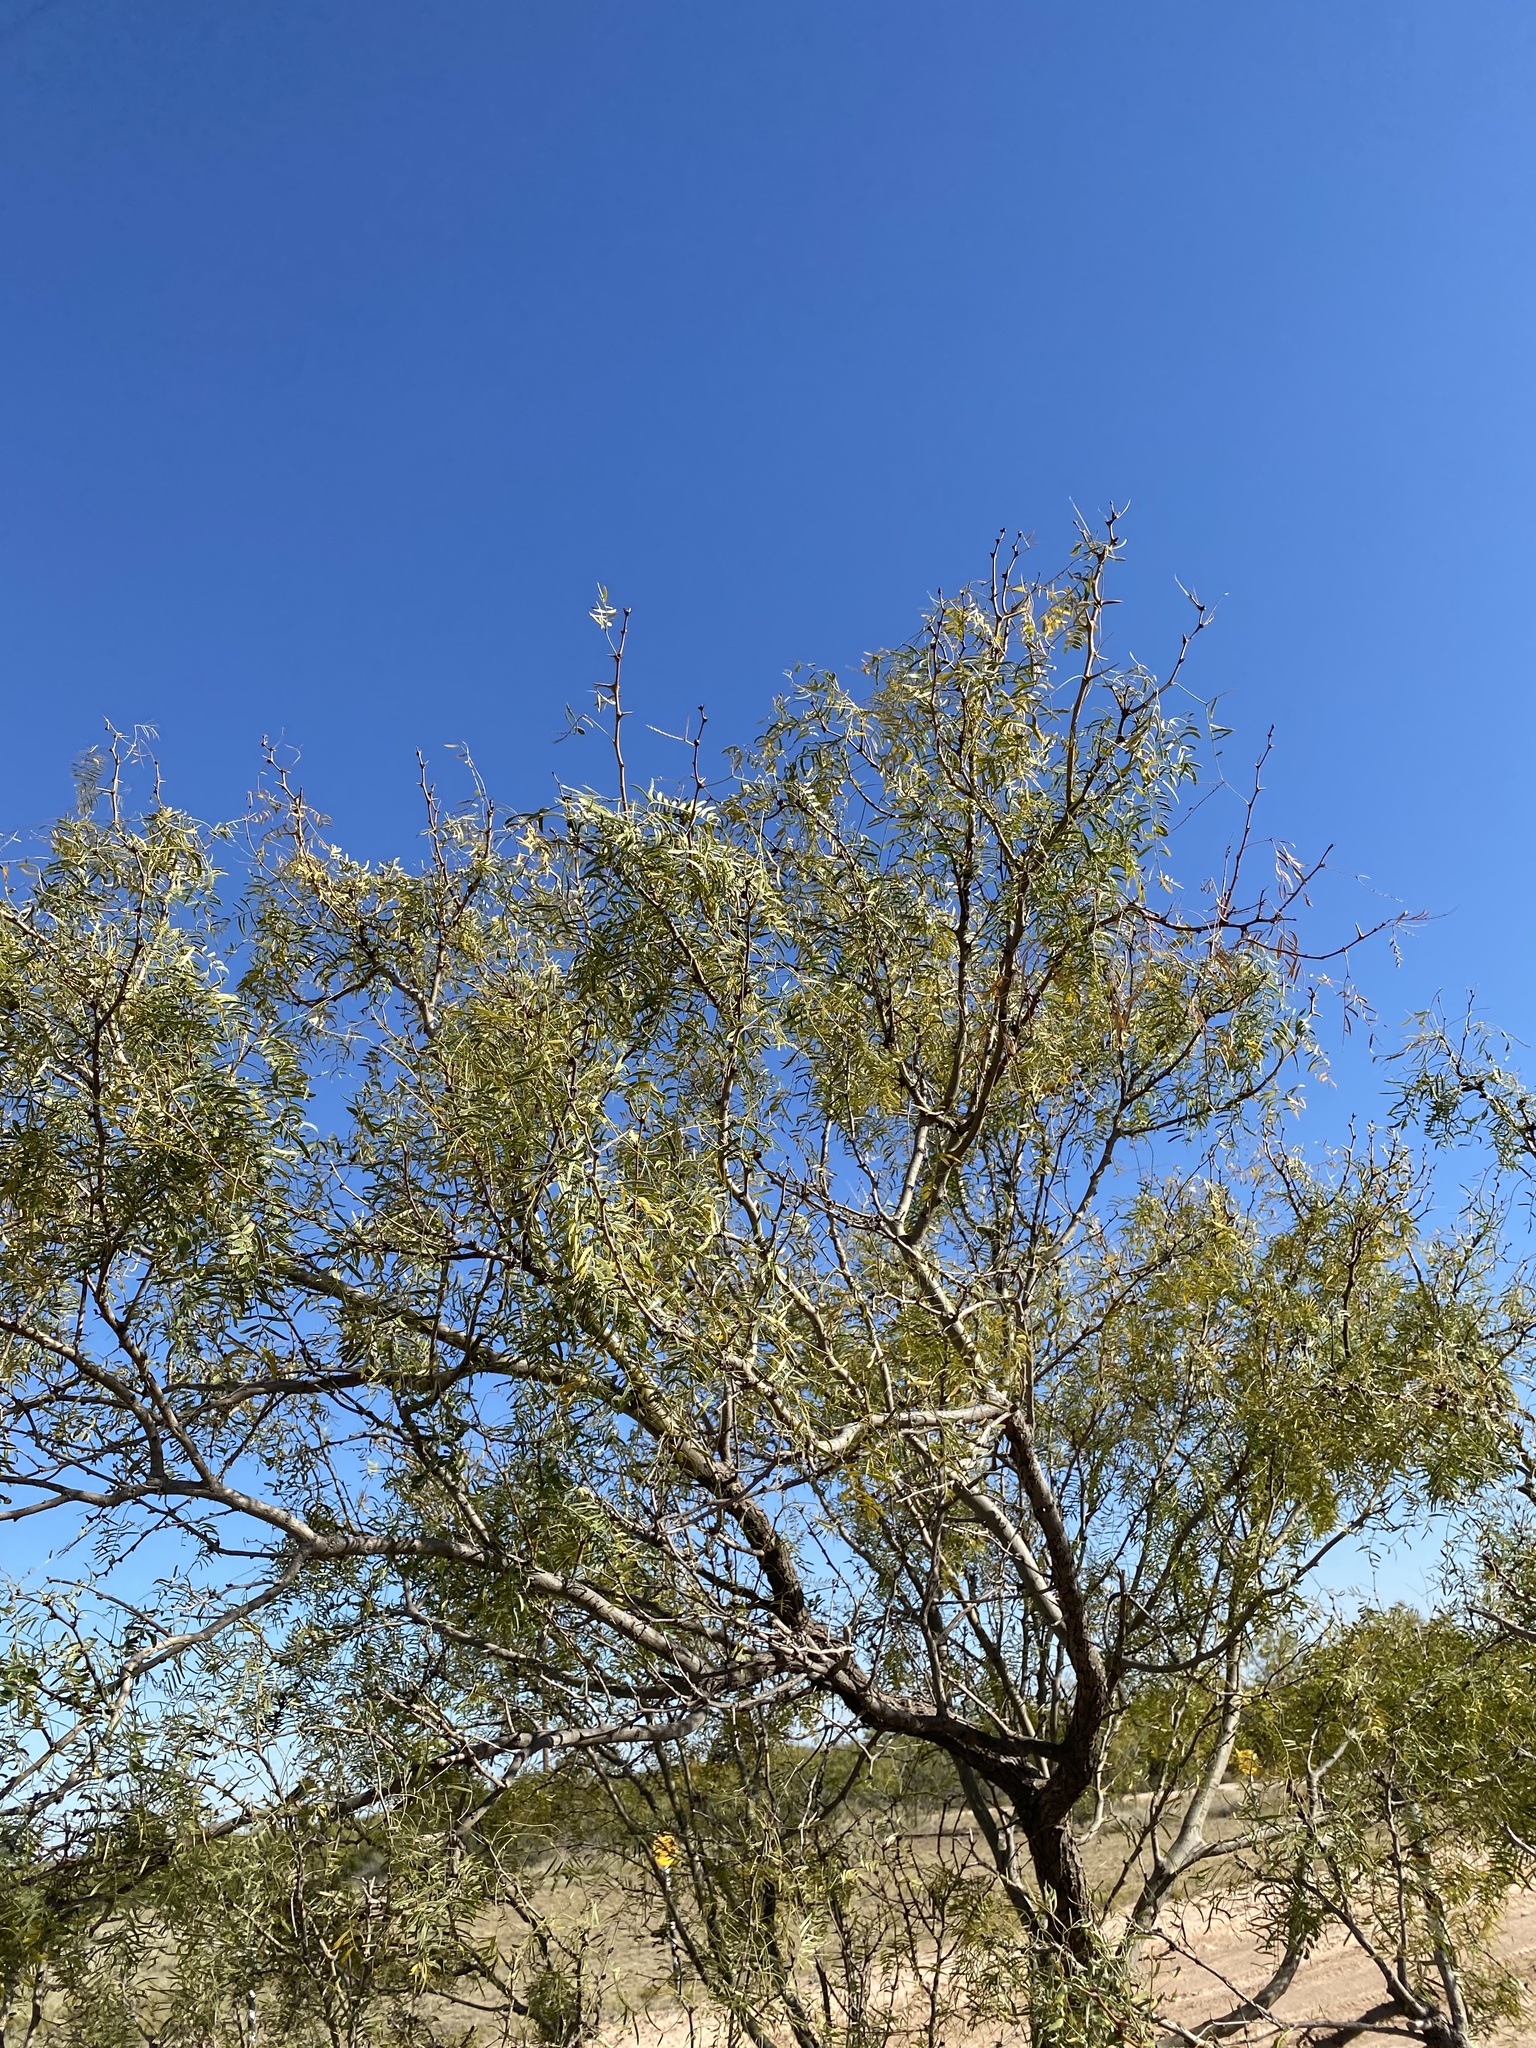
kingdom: Plantae
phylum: Tracheophyta
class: Magnoliopsida
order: Fabales
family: Fabaceae
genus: Prosopis
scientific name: Prosopis glandulosa
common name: Honey mesquite
